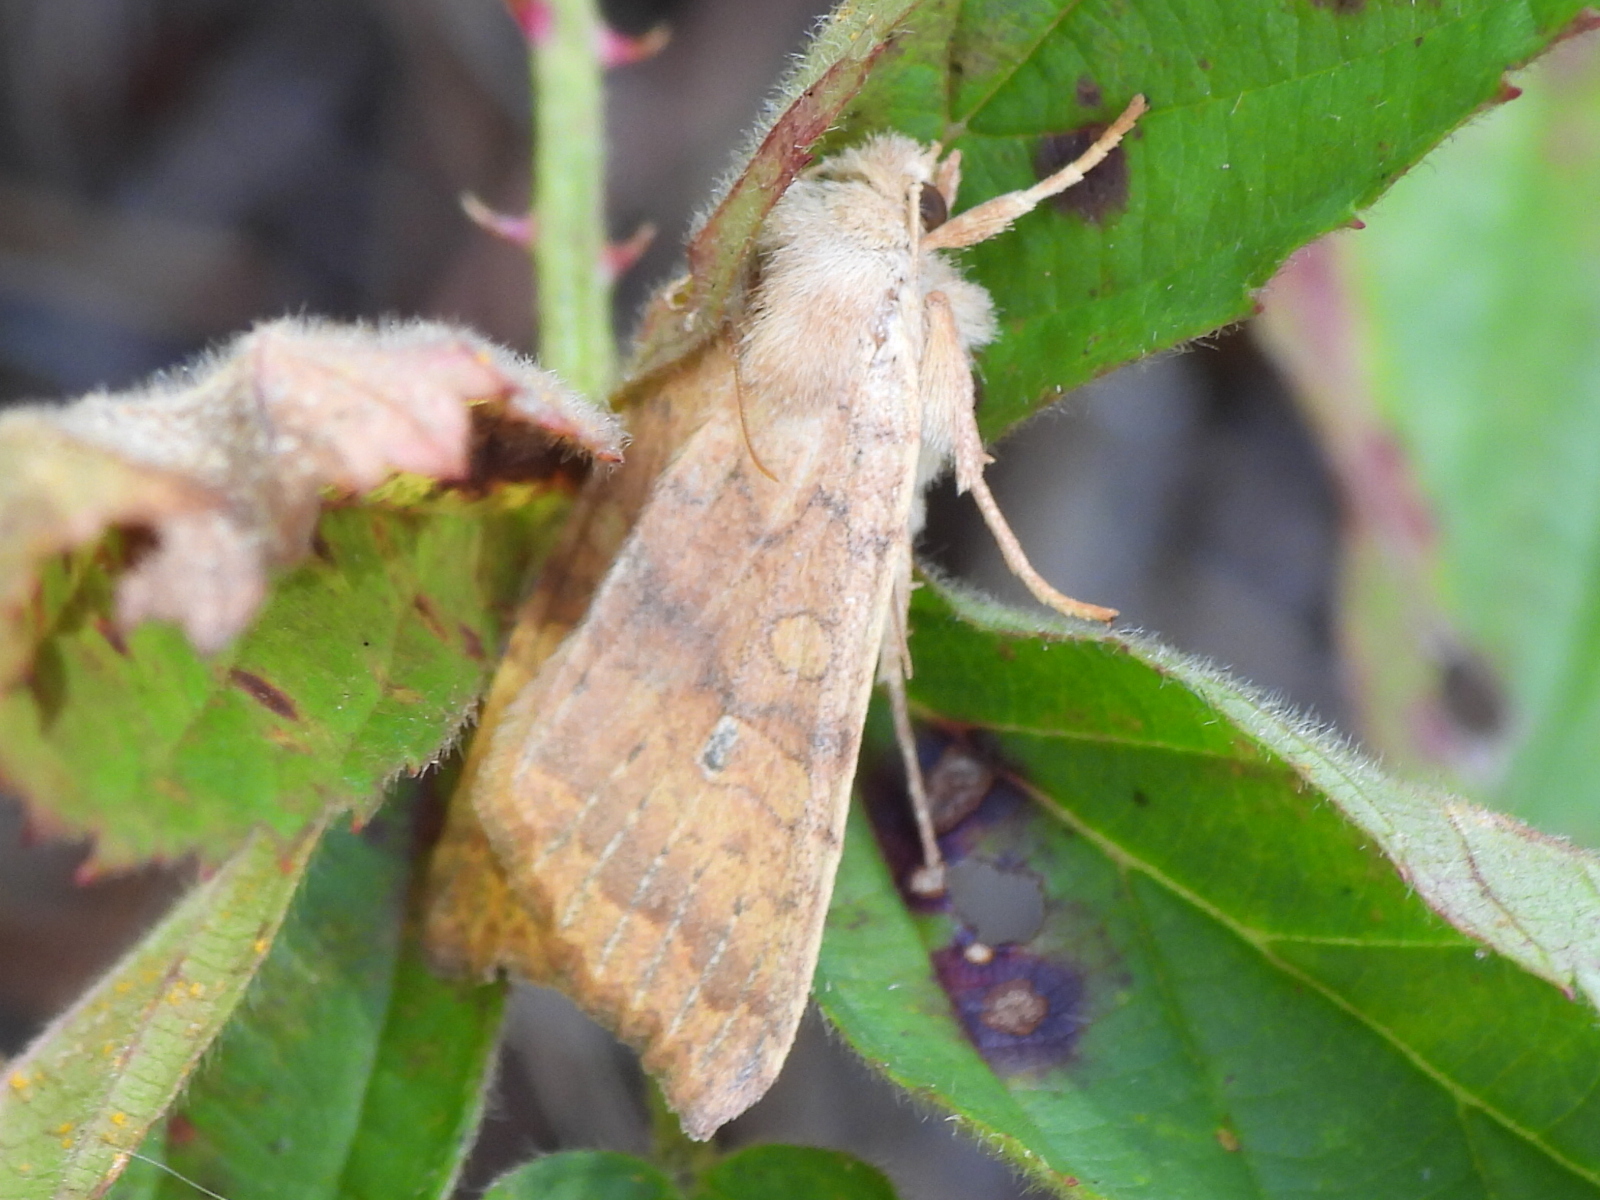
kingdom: Animalia
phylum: Arthropoda
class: Insecta
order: Lepidoptera
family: Noctuidae
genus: Agrochola
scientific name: Agrochola bicolorago
